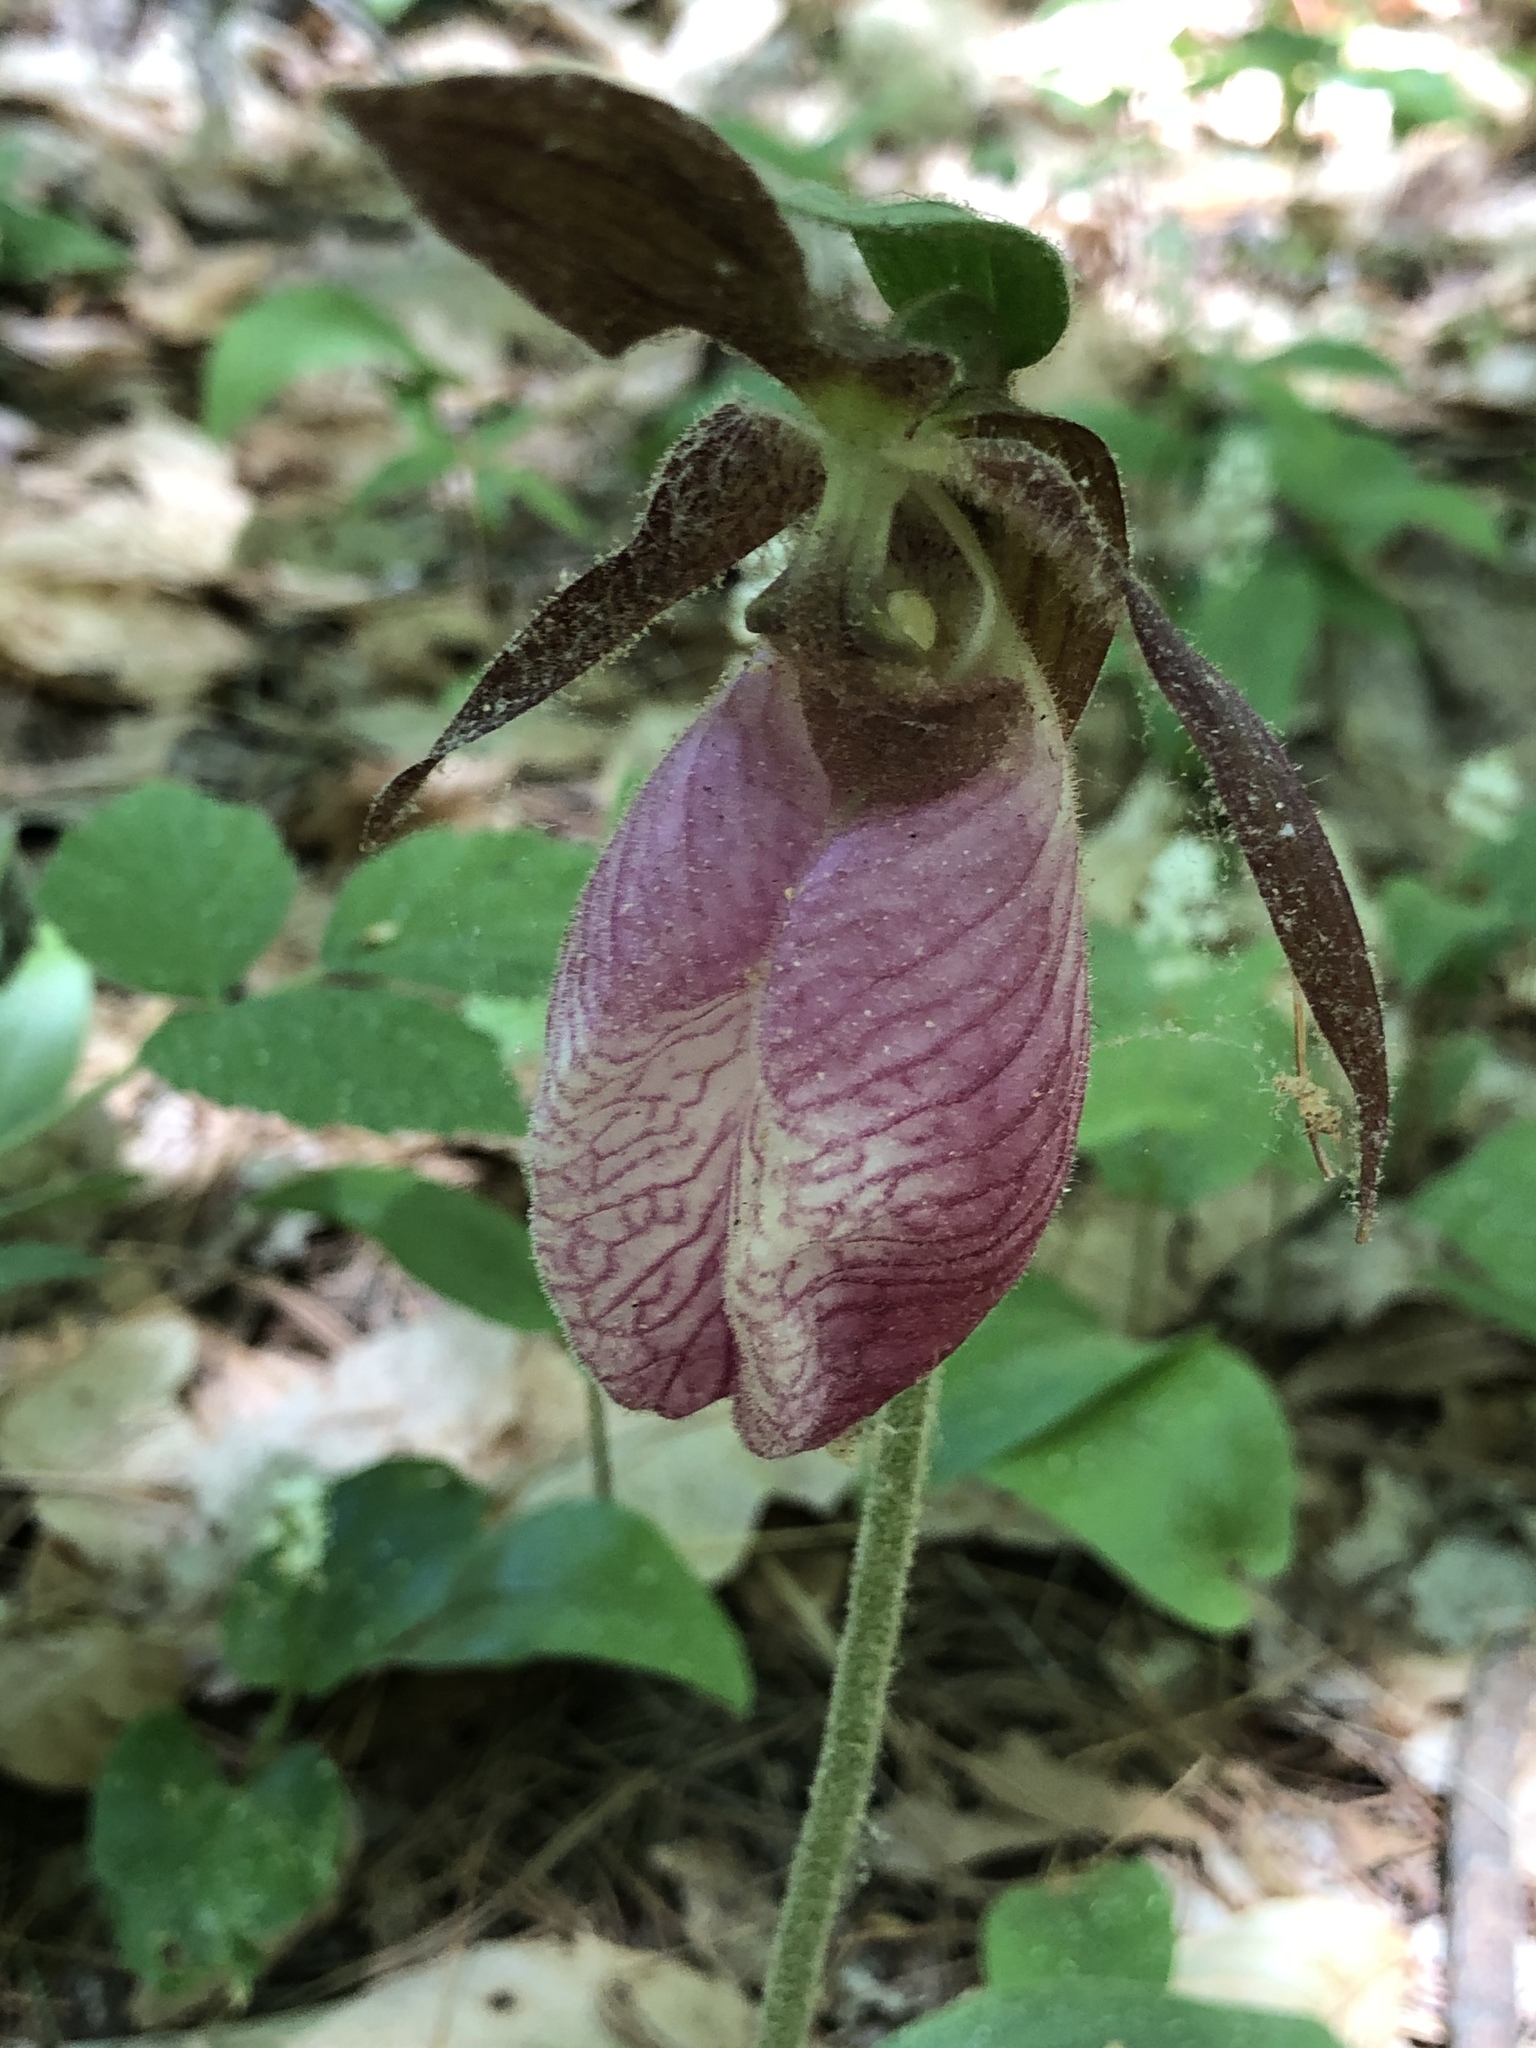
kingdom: Plantae
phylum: Tracheophyta
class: Liliopsida
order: Asparagales
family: Orchidaceae
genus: Cypripedium
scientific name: Cypripedium acaule
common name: Pink lady's-slipper
